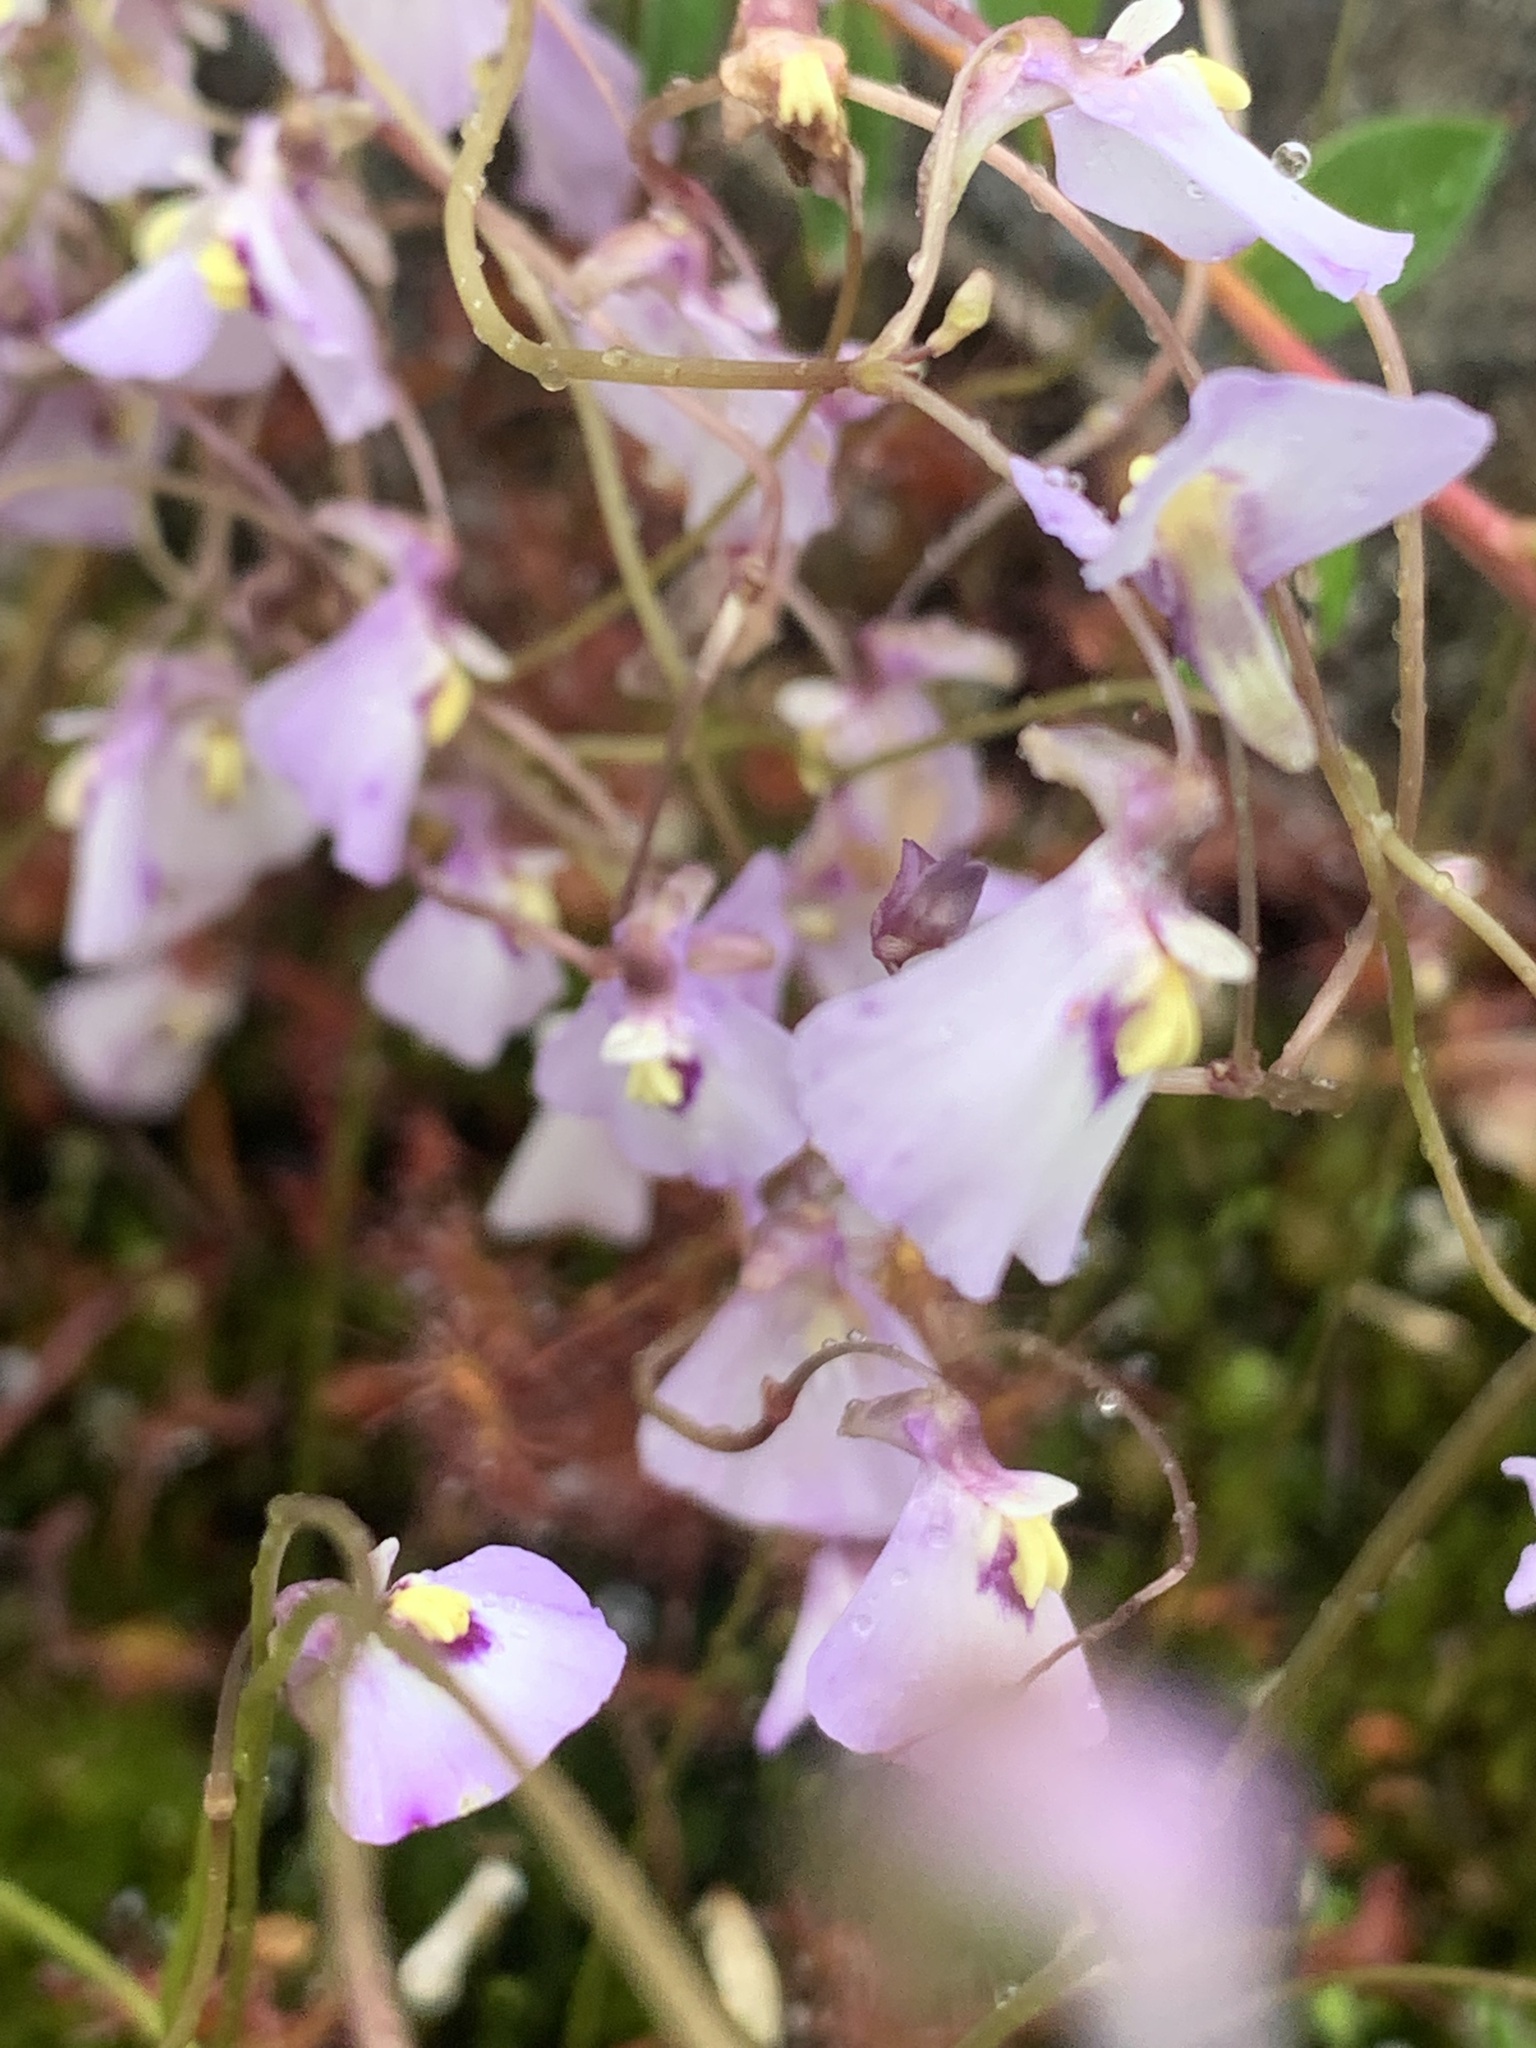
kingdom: Plantae
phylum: Tracheophyta
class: Magnoliopsida
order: Lamiales
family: Lentibulariaceae
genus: Utricularia
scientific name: Utricularia grampiana
